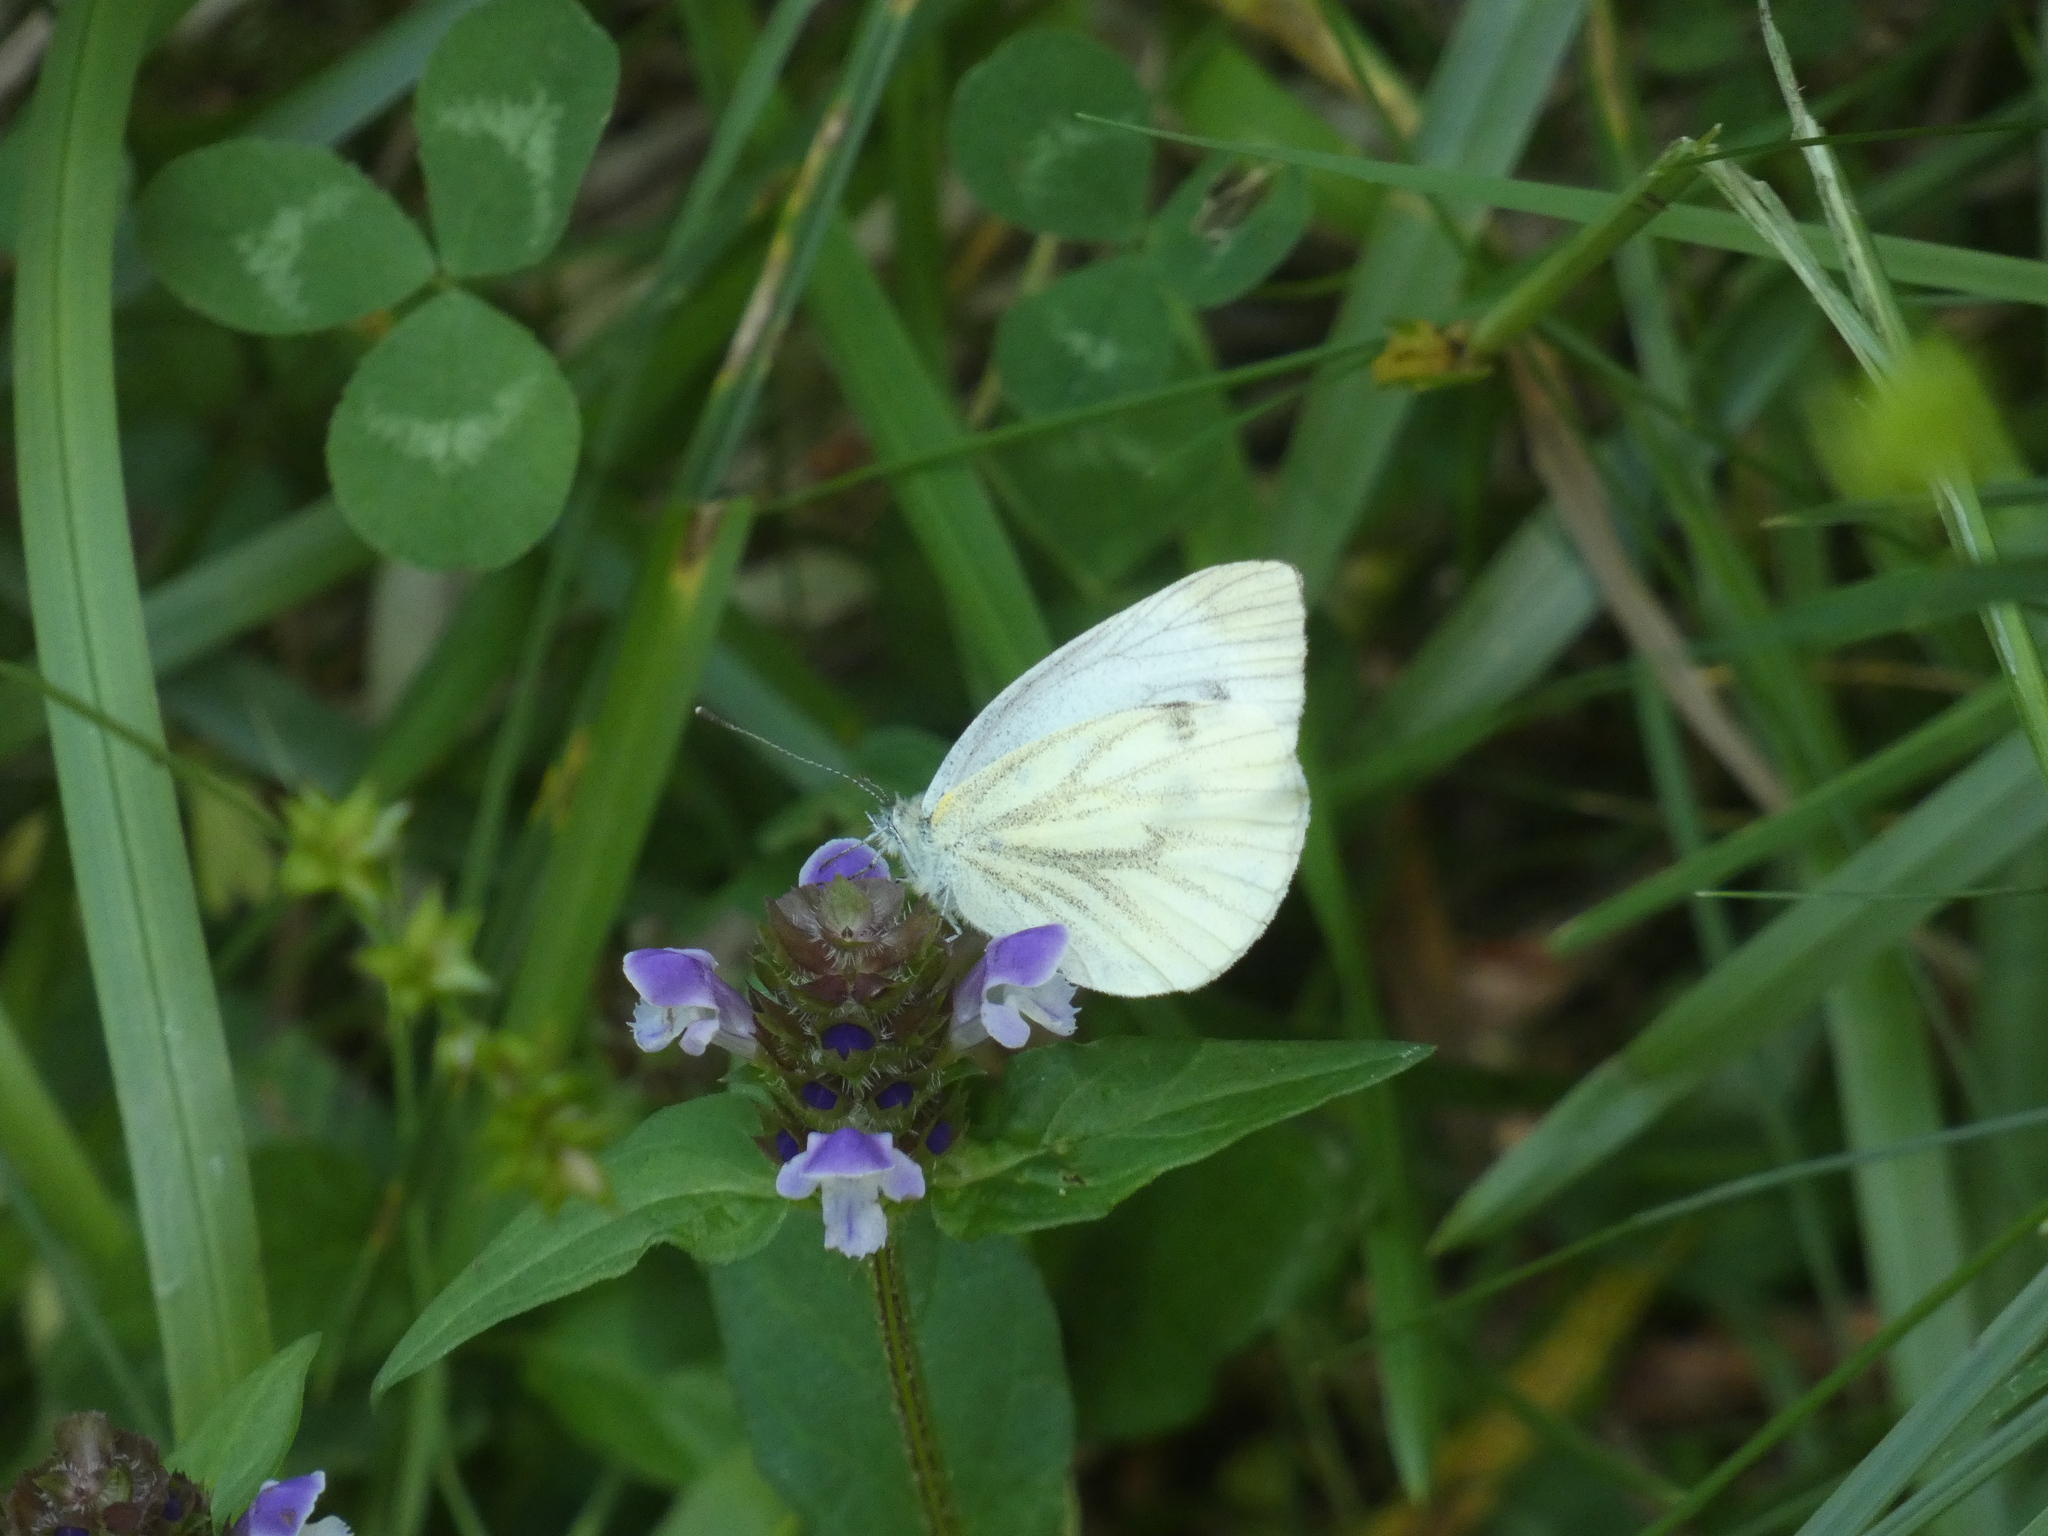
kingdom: Animalia
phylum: Arthropoda
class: Insecta
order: Lepidoptera
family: Pieridae
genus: Pieris
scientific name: Pieris napi
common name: Green-veined white
